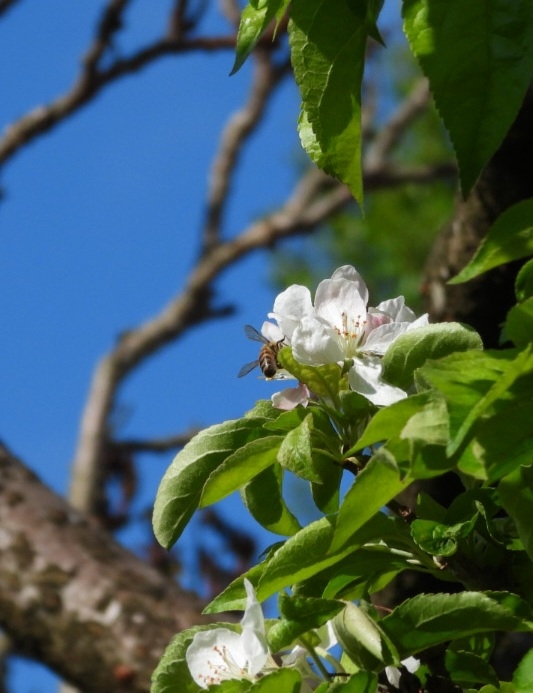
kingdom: Animalia
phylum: Arthropoda
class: Insecta
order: Hymenoptera
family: Apidae
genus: Apis
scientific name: Apis mellifera
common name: Honey bee
